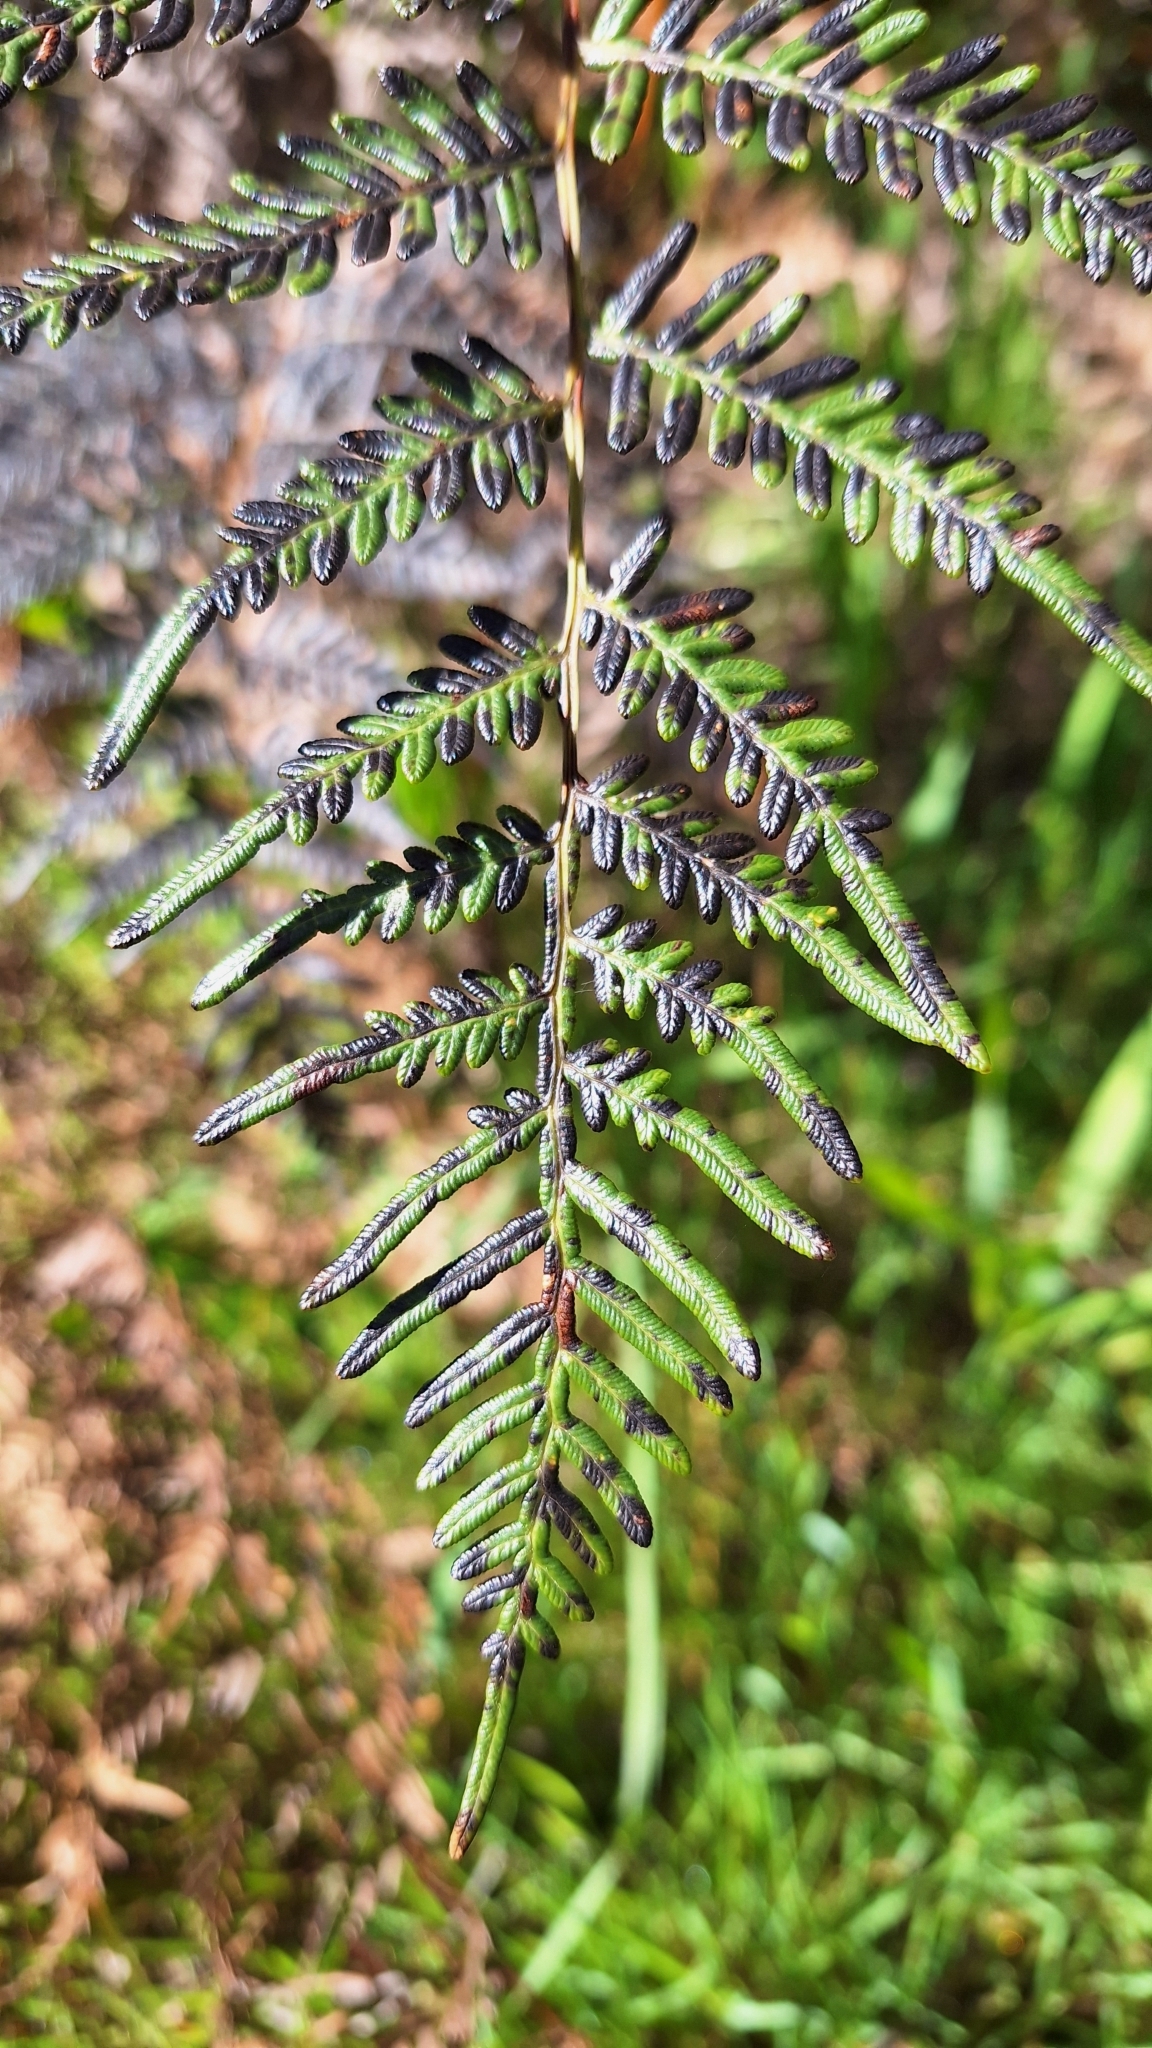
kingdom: Plantae
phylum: Tracheophyta
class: Polypodiopsida
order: Polypodiales
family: Dennstaedtiaceae
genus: Pteridium
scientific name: Pteridium esculentum
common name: Bracken fern
